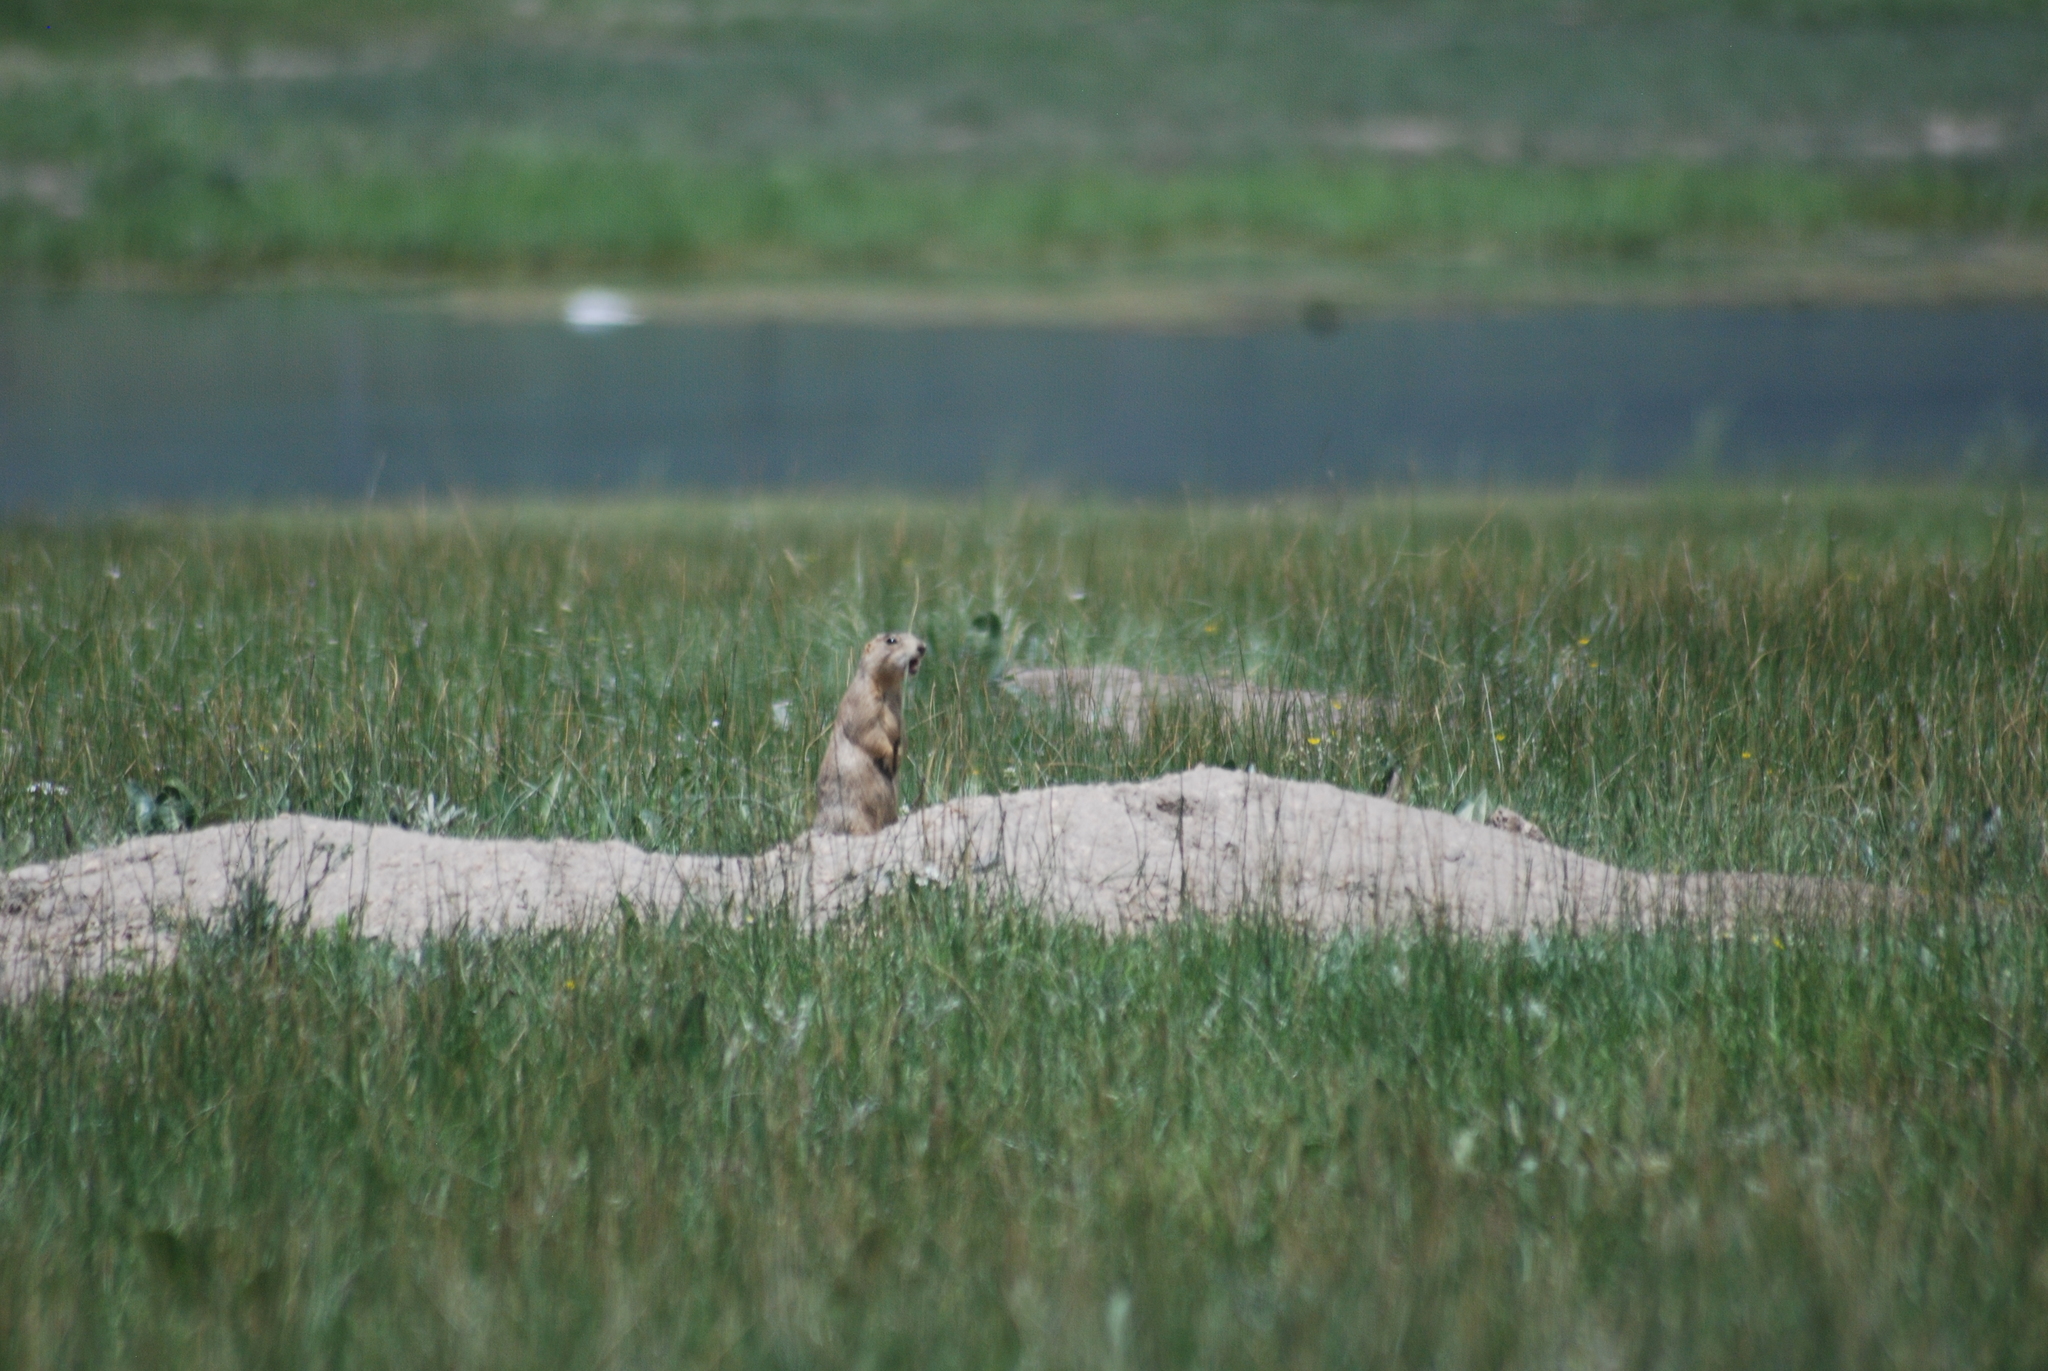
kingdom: Animalia
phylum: Chordata
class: Mammalia
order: Rodentia
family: Sciuridae
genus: Cynomys
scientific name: Cynomys gunnisoni
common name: Gunnison's prairie dog
